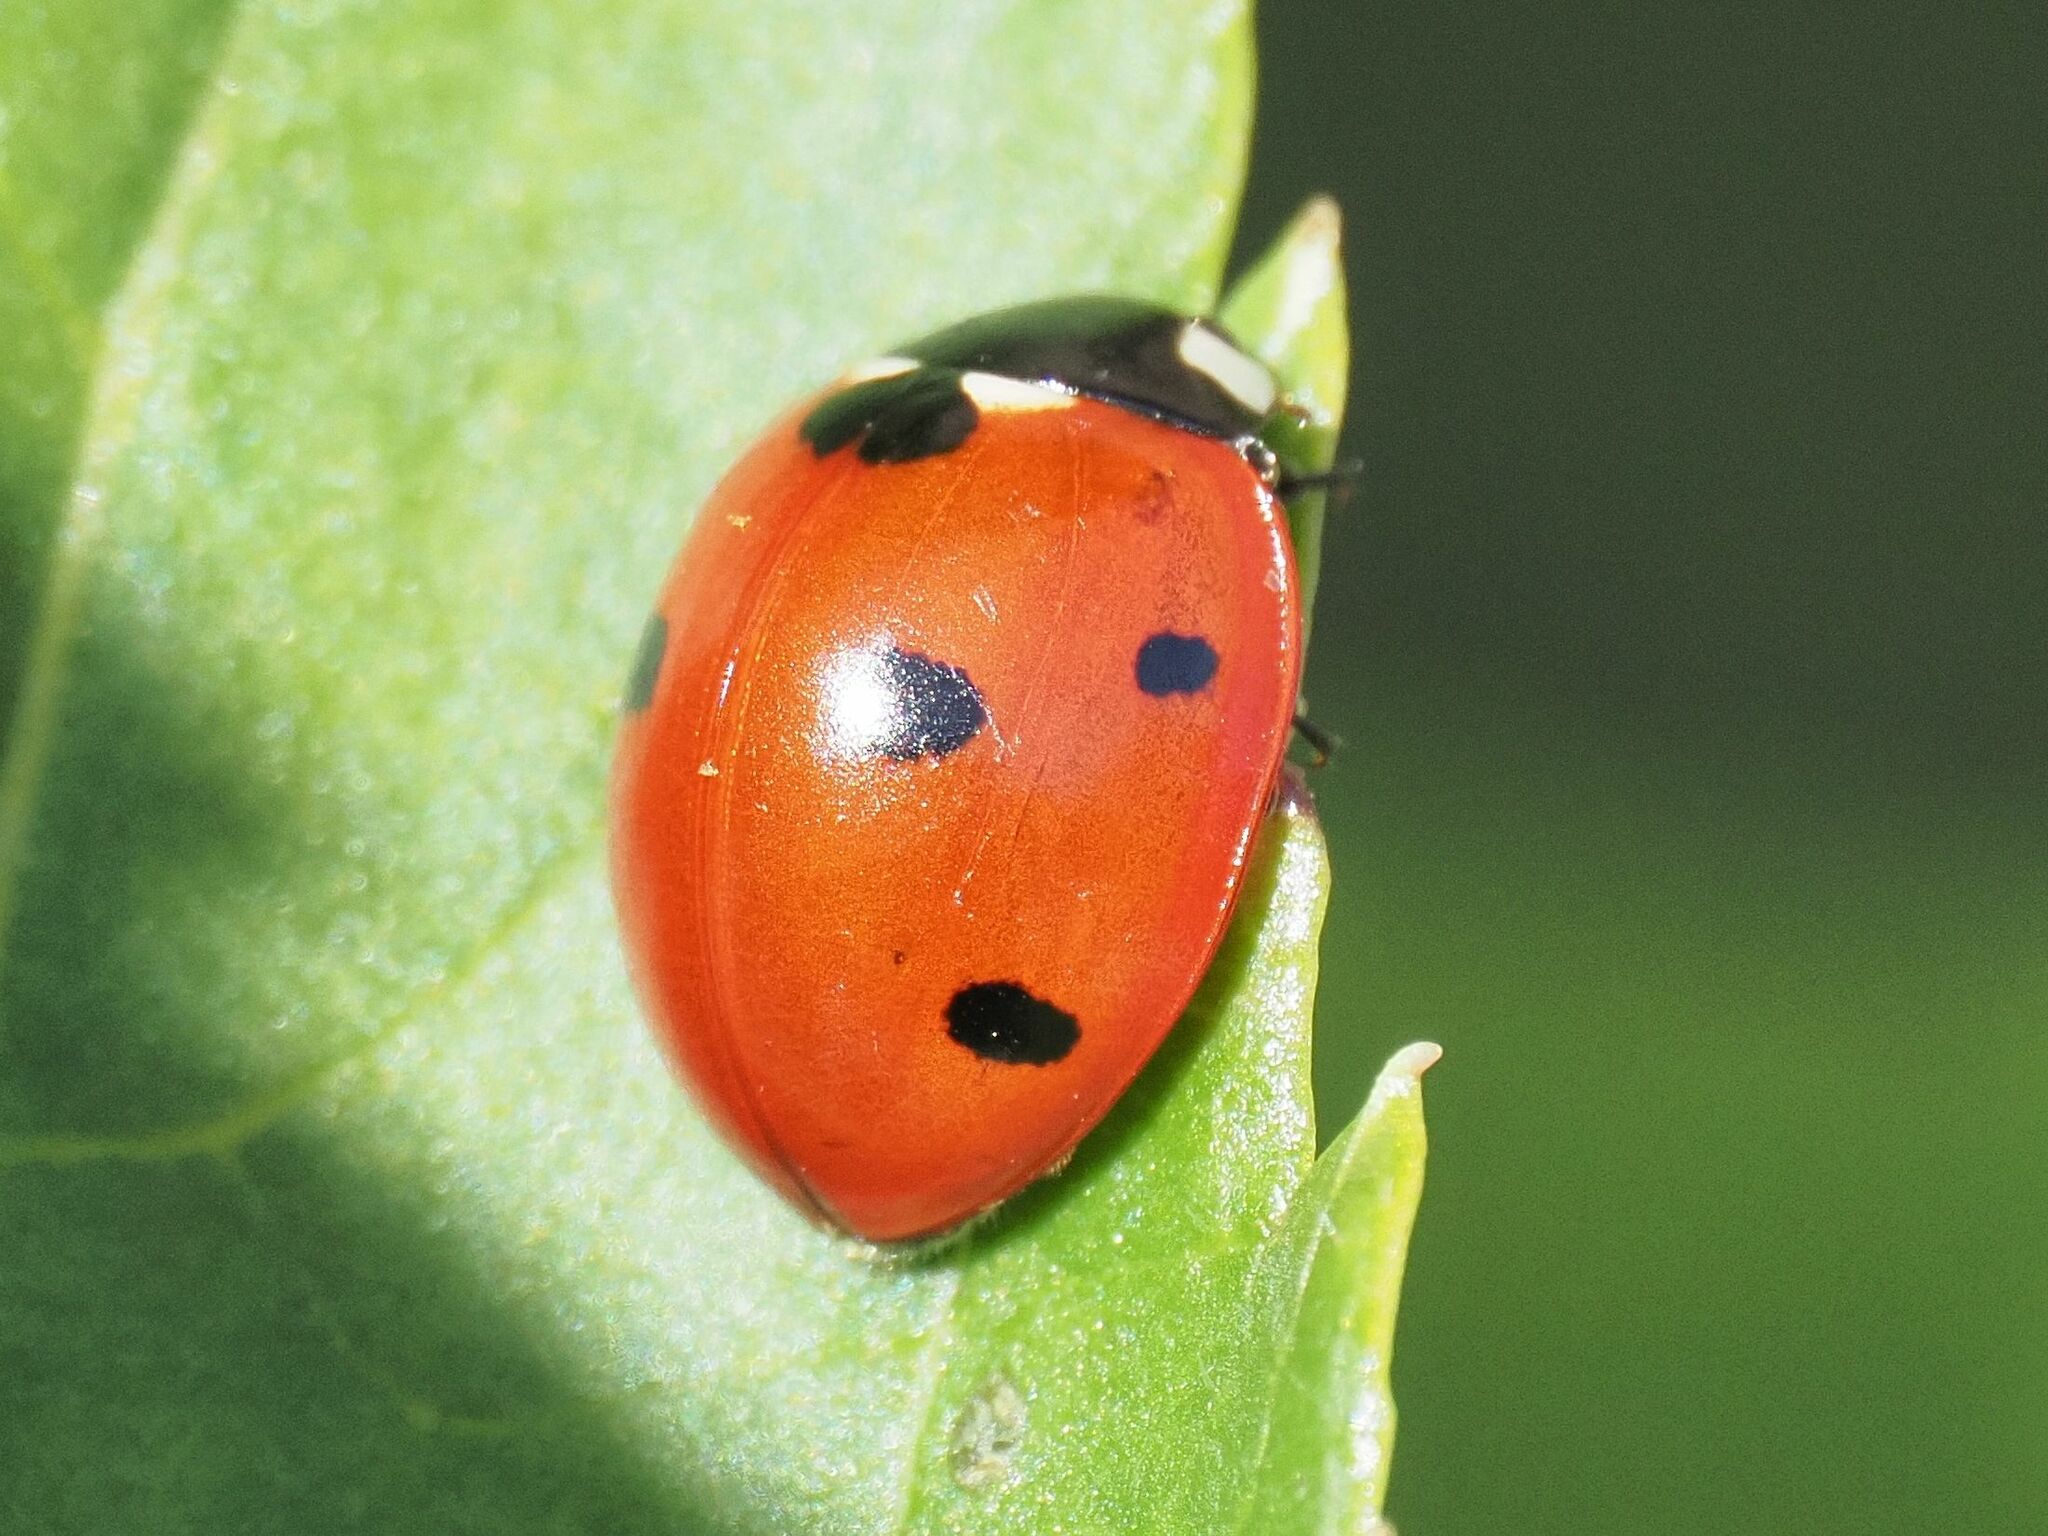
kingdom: Animalia
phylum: Arthropoda
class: Insecta
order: Coleoptera
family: Coccinellidae
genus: Coccinella
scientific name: Coccinella septempunctata
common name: Sevenspotted lady beetle
